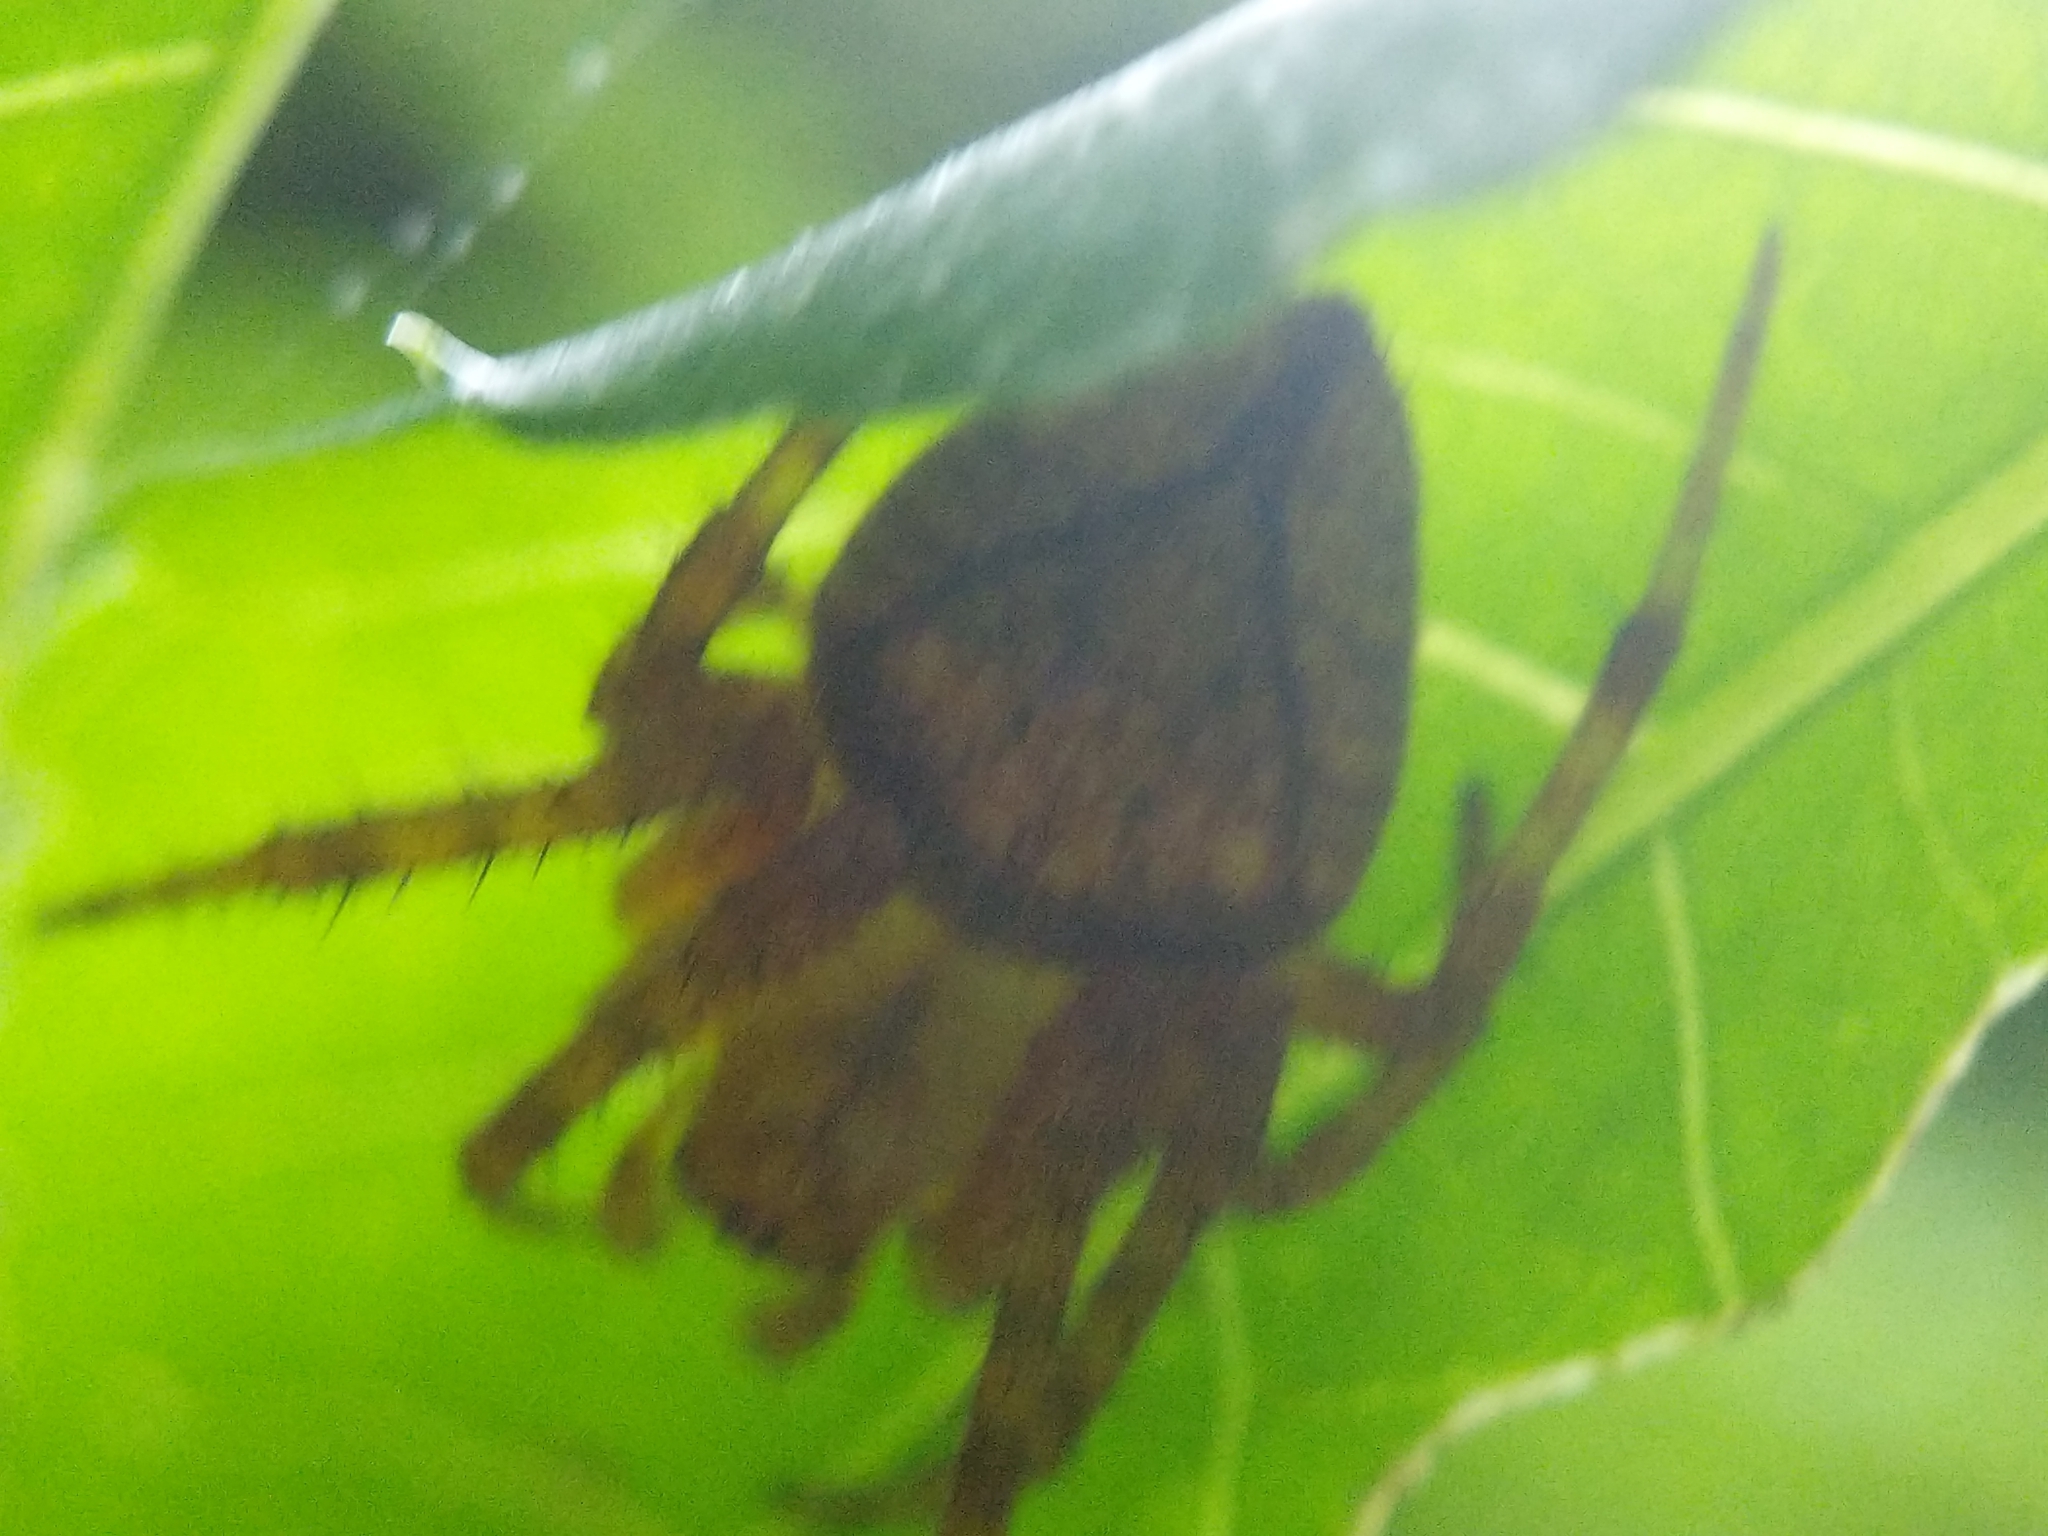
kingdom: Animalia
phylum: Arthropoda
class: Arachnida
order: Araneae
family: Araneidae
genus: Eriophora
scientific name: Eriophora edax
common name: Orb weavers
